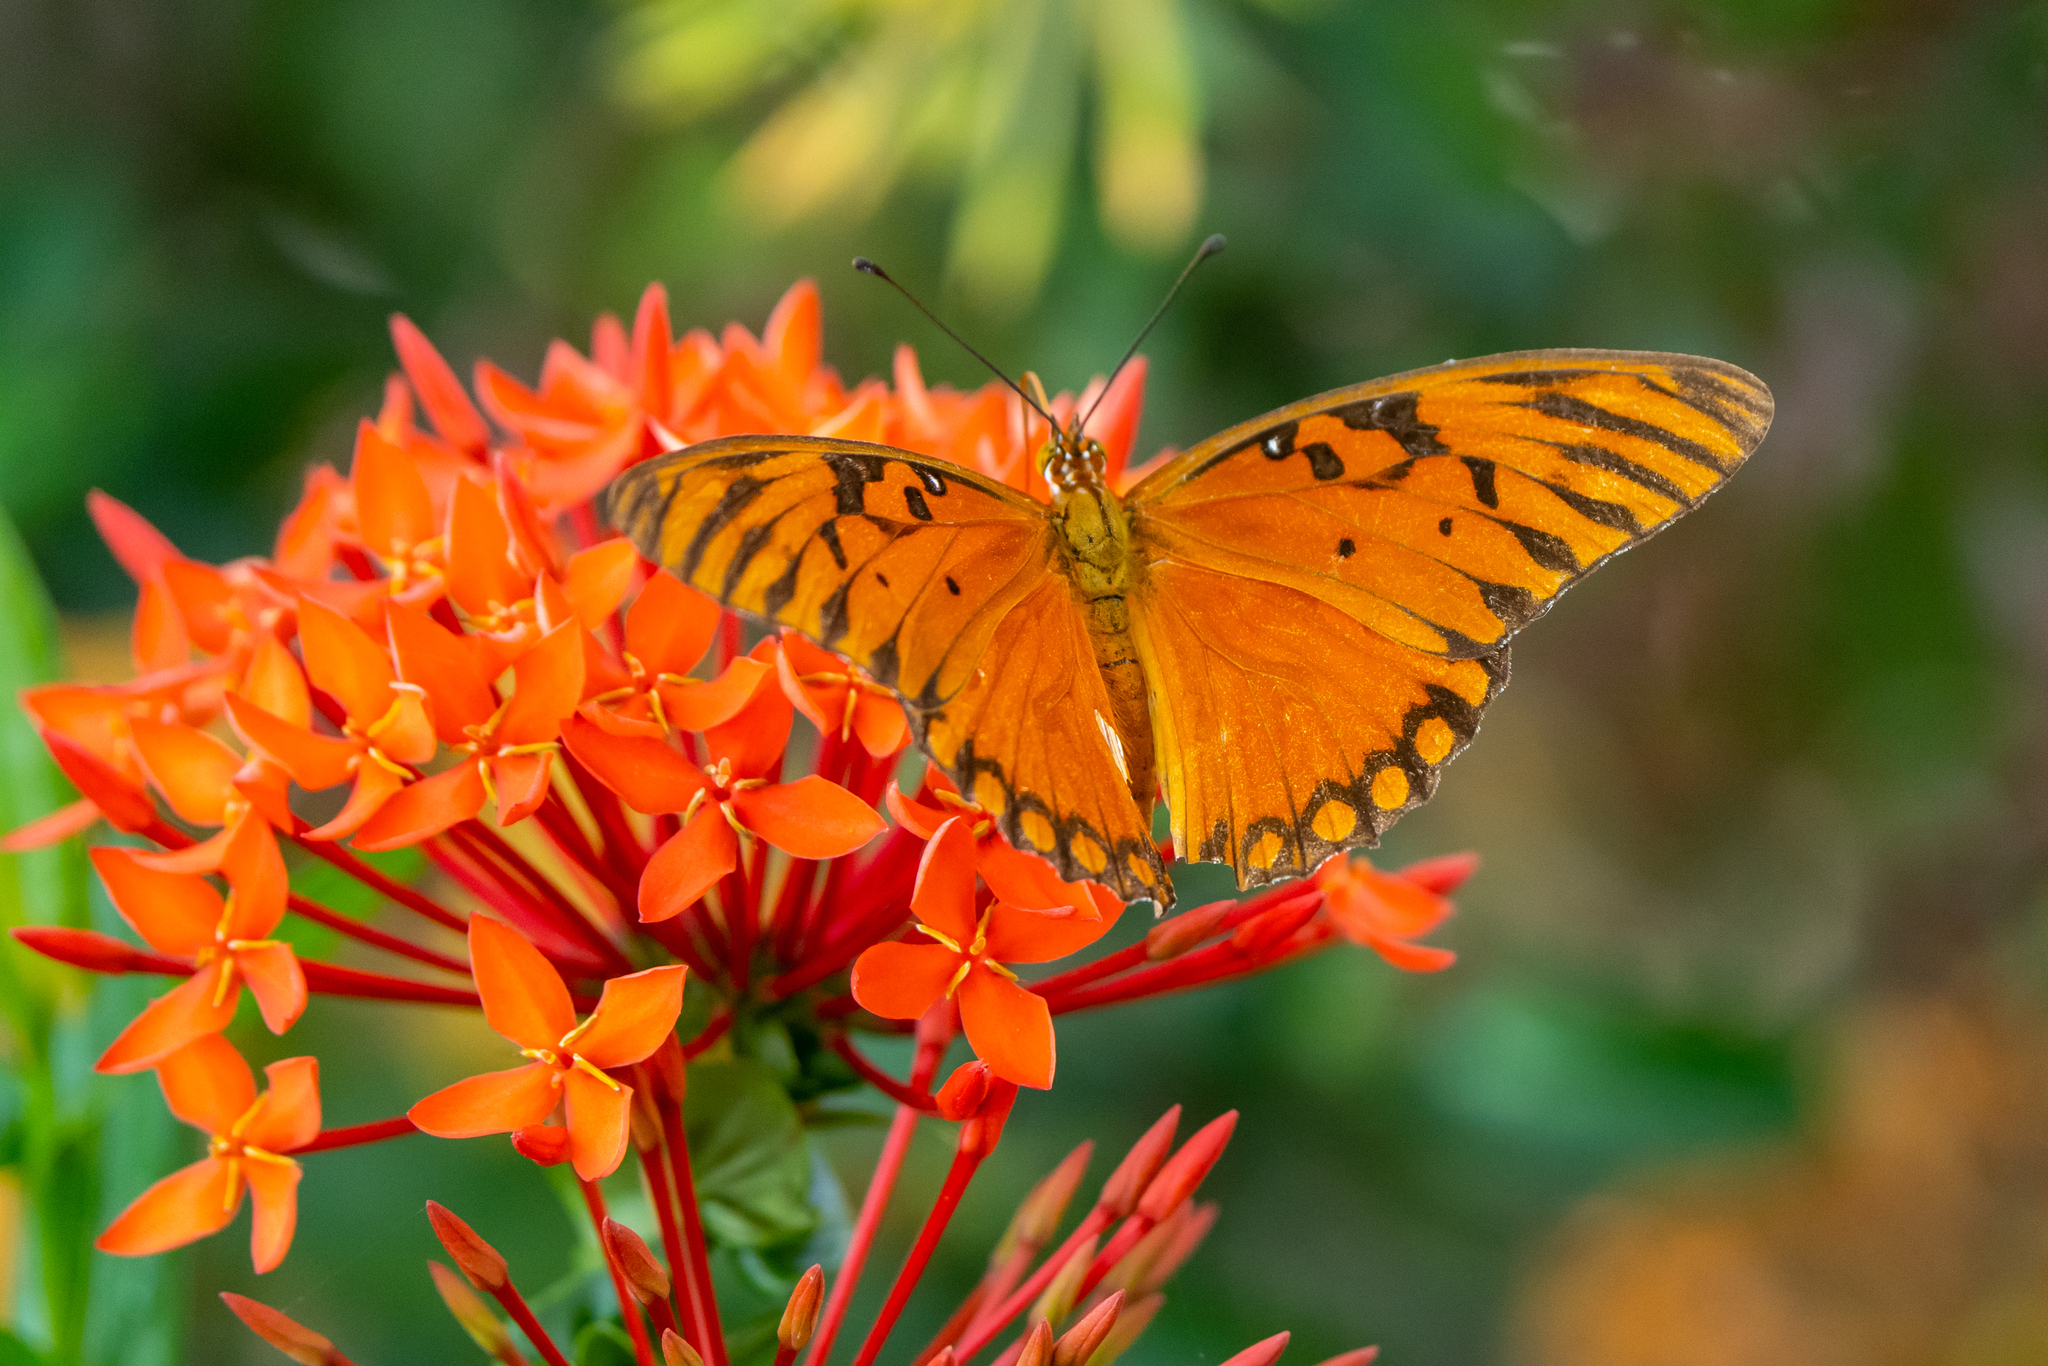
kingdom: Animalia
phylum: Arthropoda
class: Insecta
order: Lepidoptera
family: Nymphalidae
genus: Dione
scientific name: Dione vanillae
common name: Gulf fritillary
